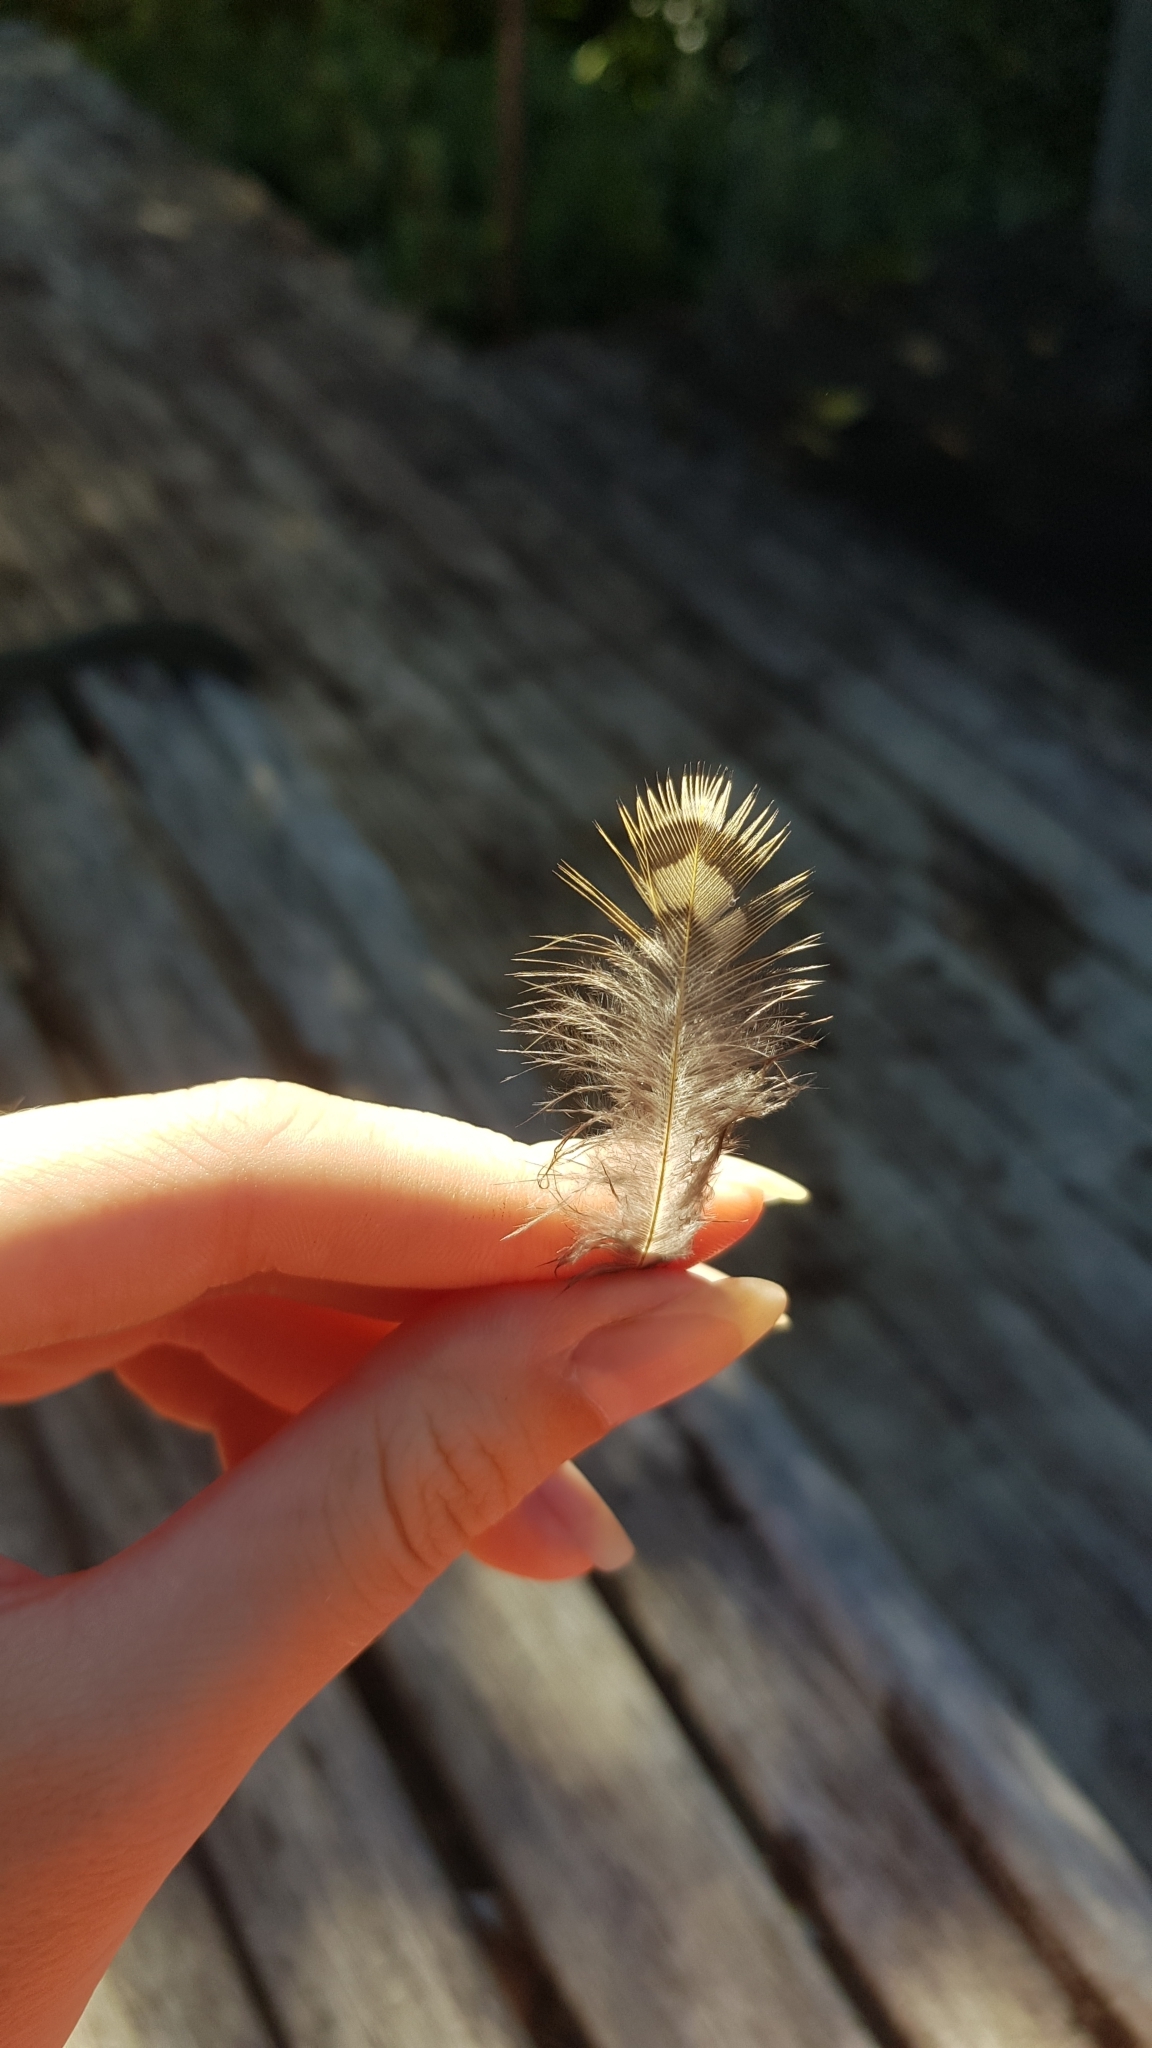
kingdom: Animalia
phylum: Chordata
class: Aves
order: Passeriformes
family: Ptilonorhynchidae
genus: Ptilonorhynchus
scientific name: Ptilonorhynchus violaceus
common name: Satin bowerbird
